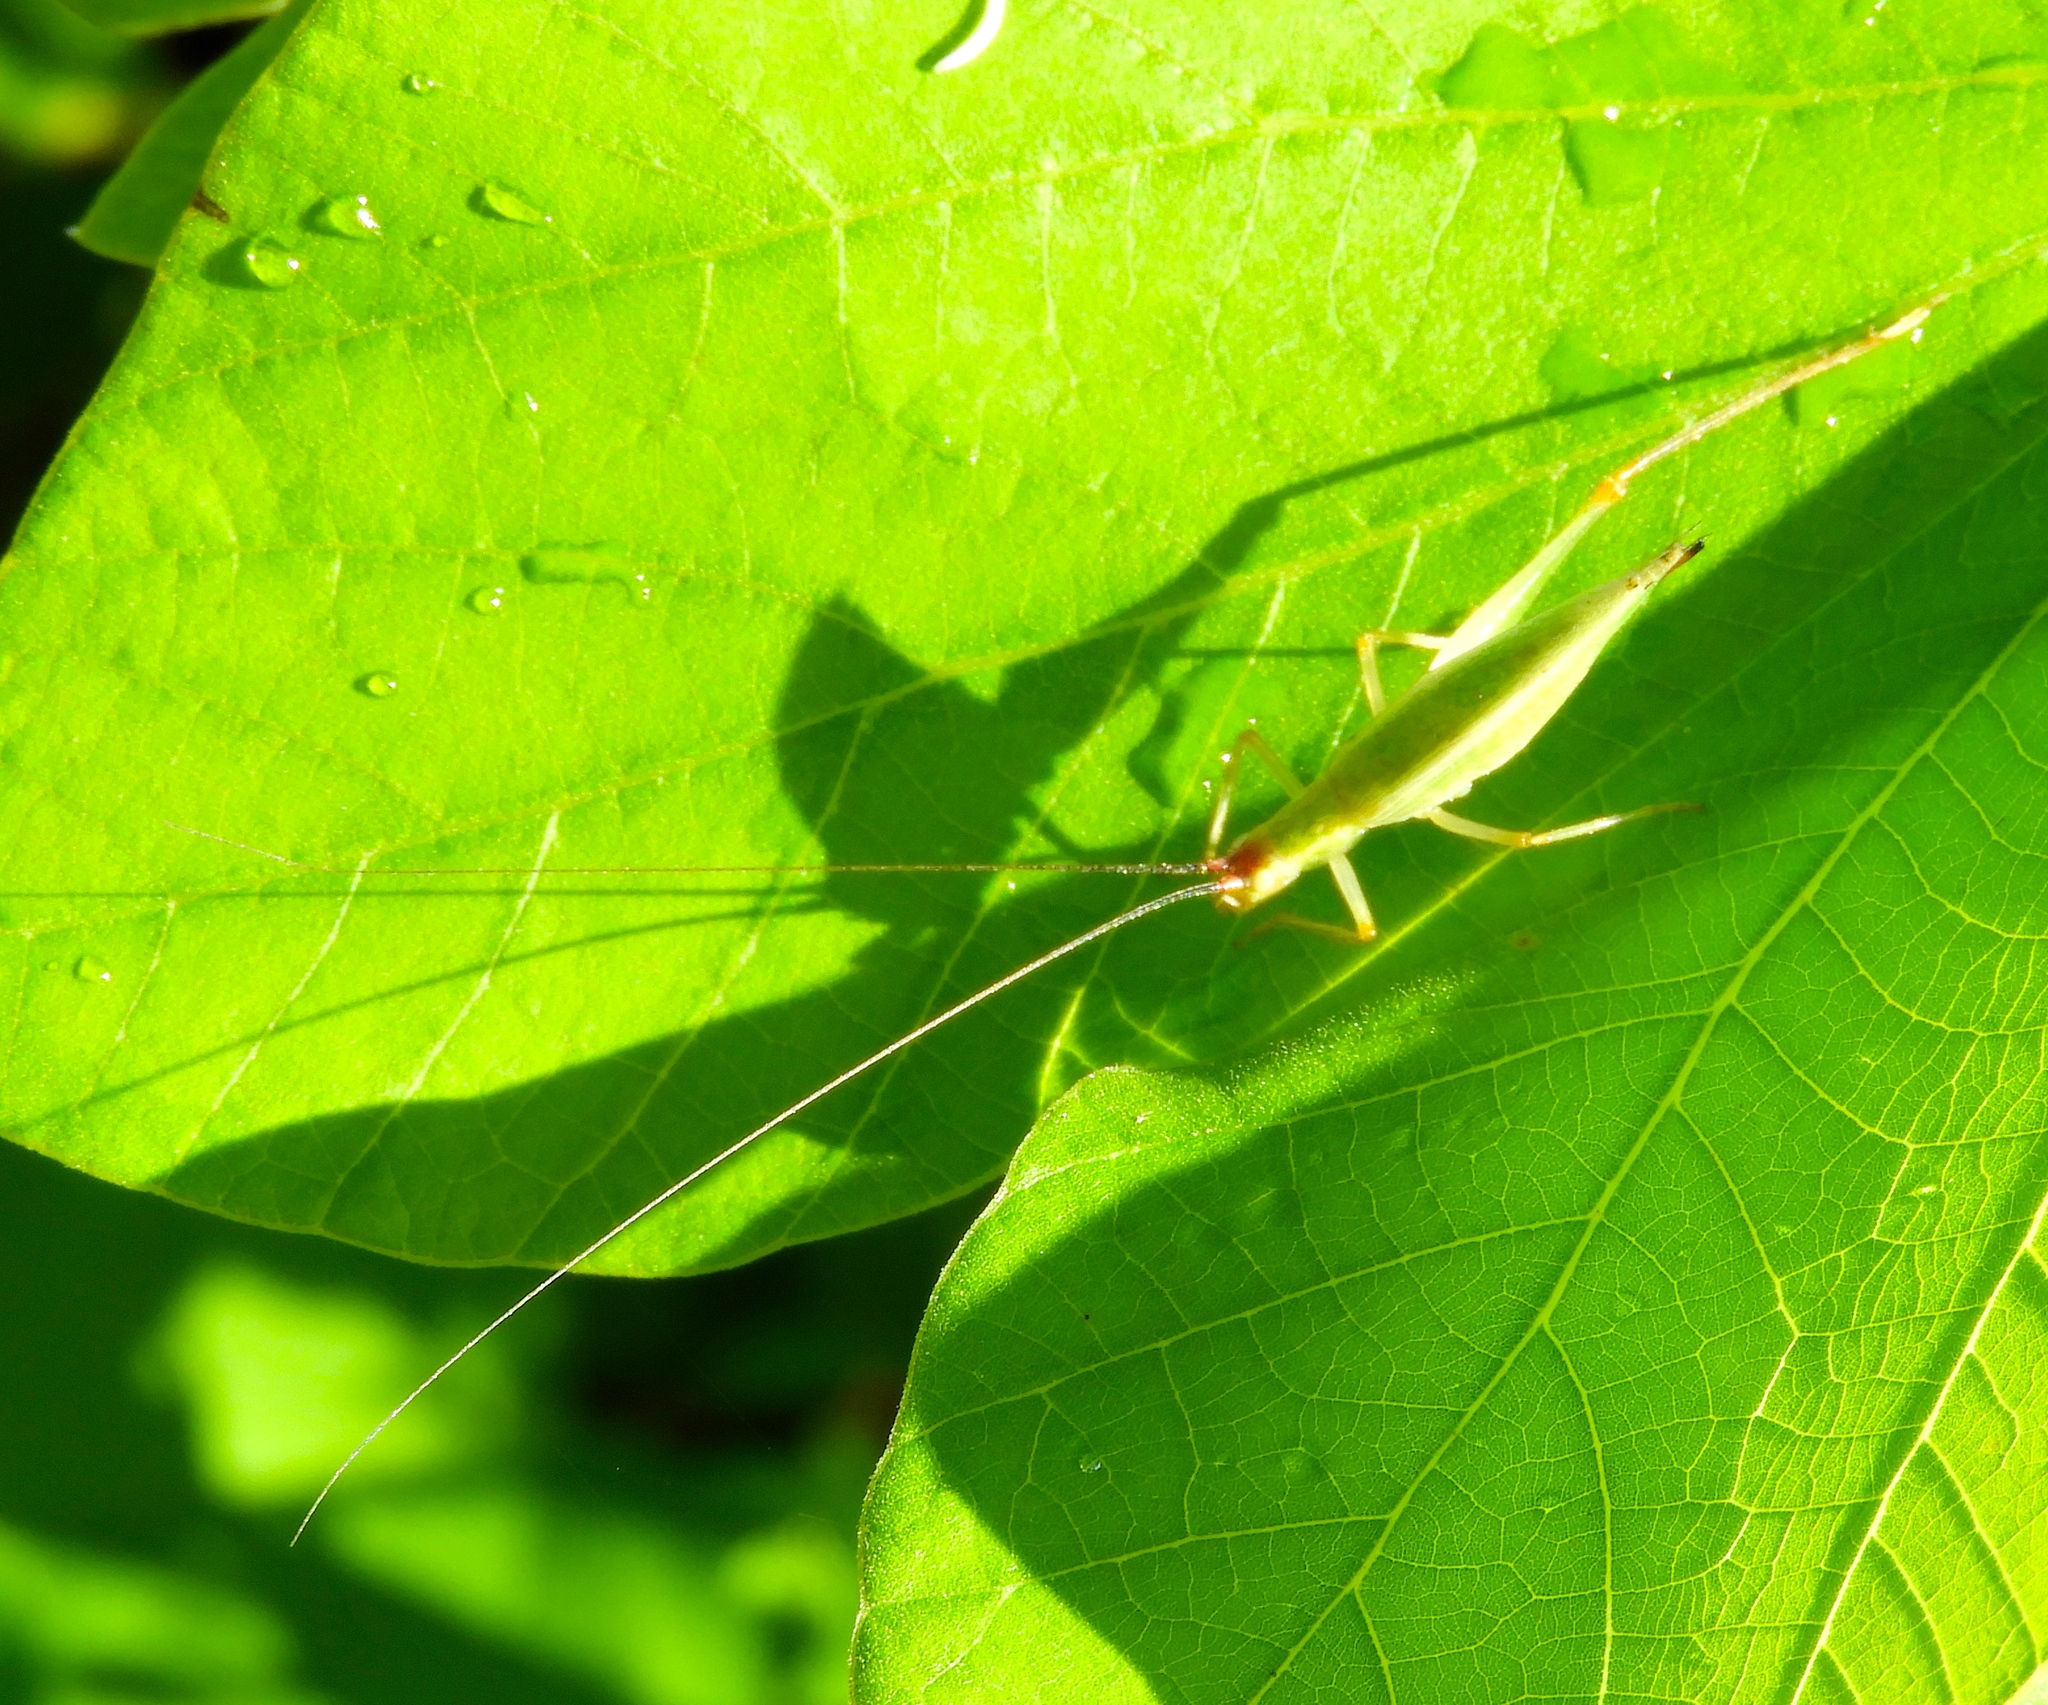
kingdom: Animalia
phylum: Arthropoda
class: Insecta
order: Orthoptera
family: Gryllidae
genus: Oecanthus
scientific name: Oecanthus
